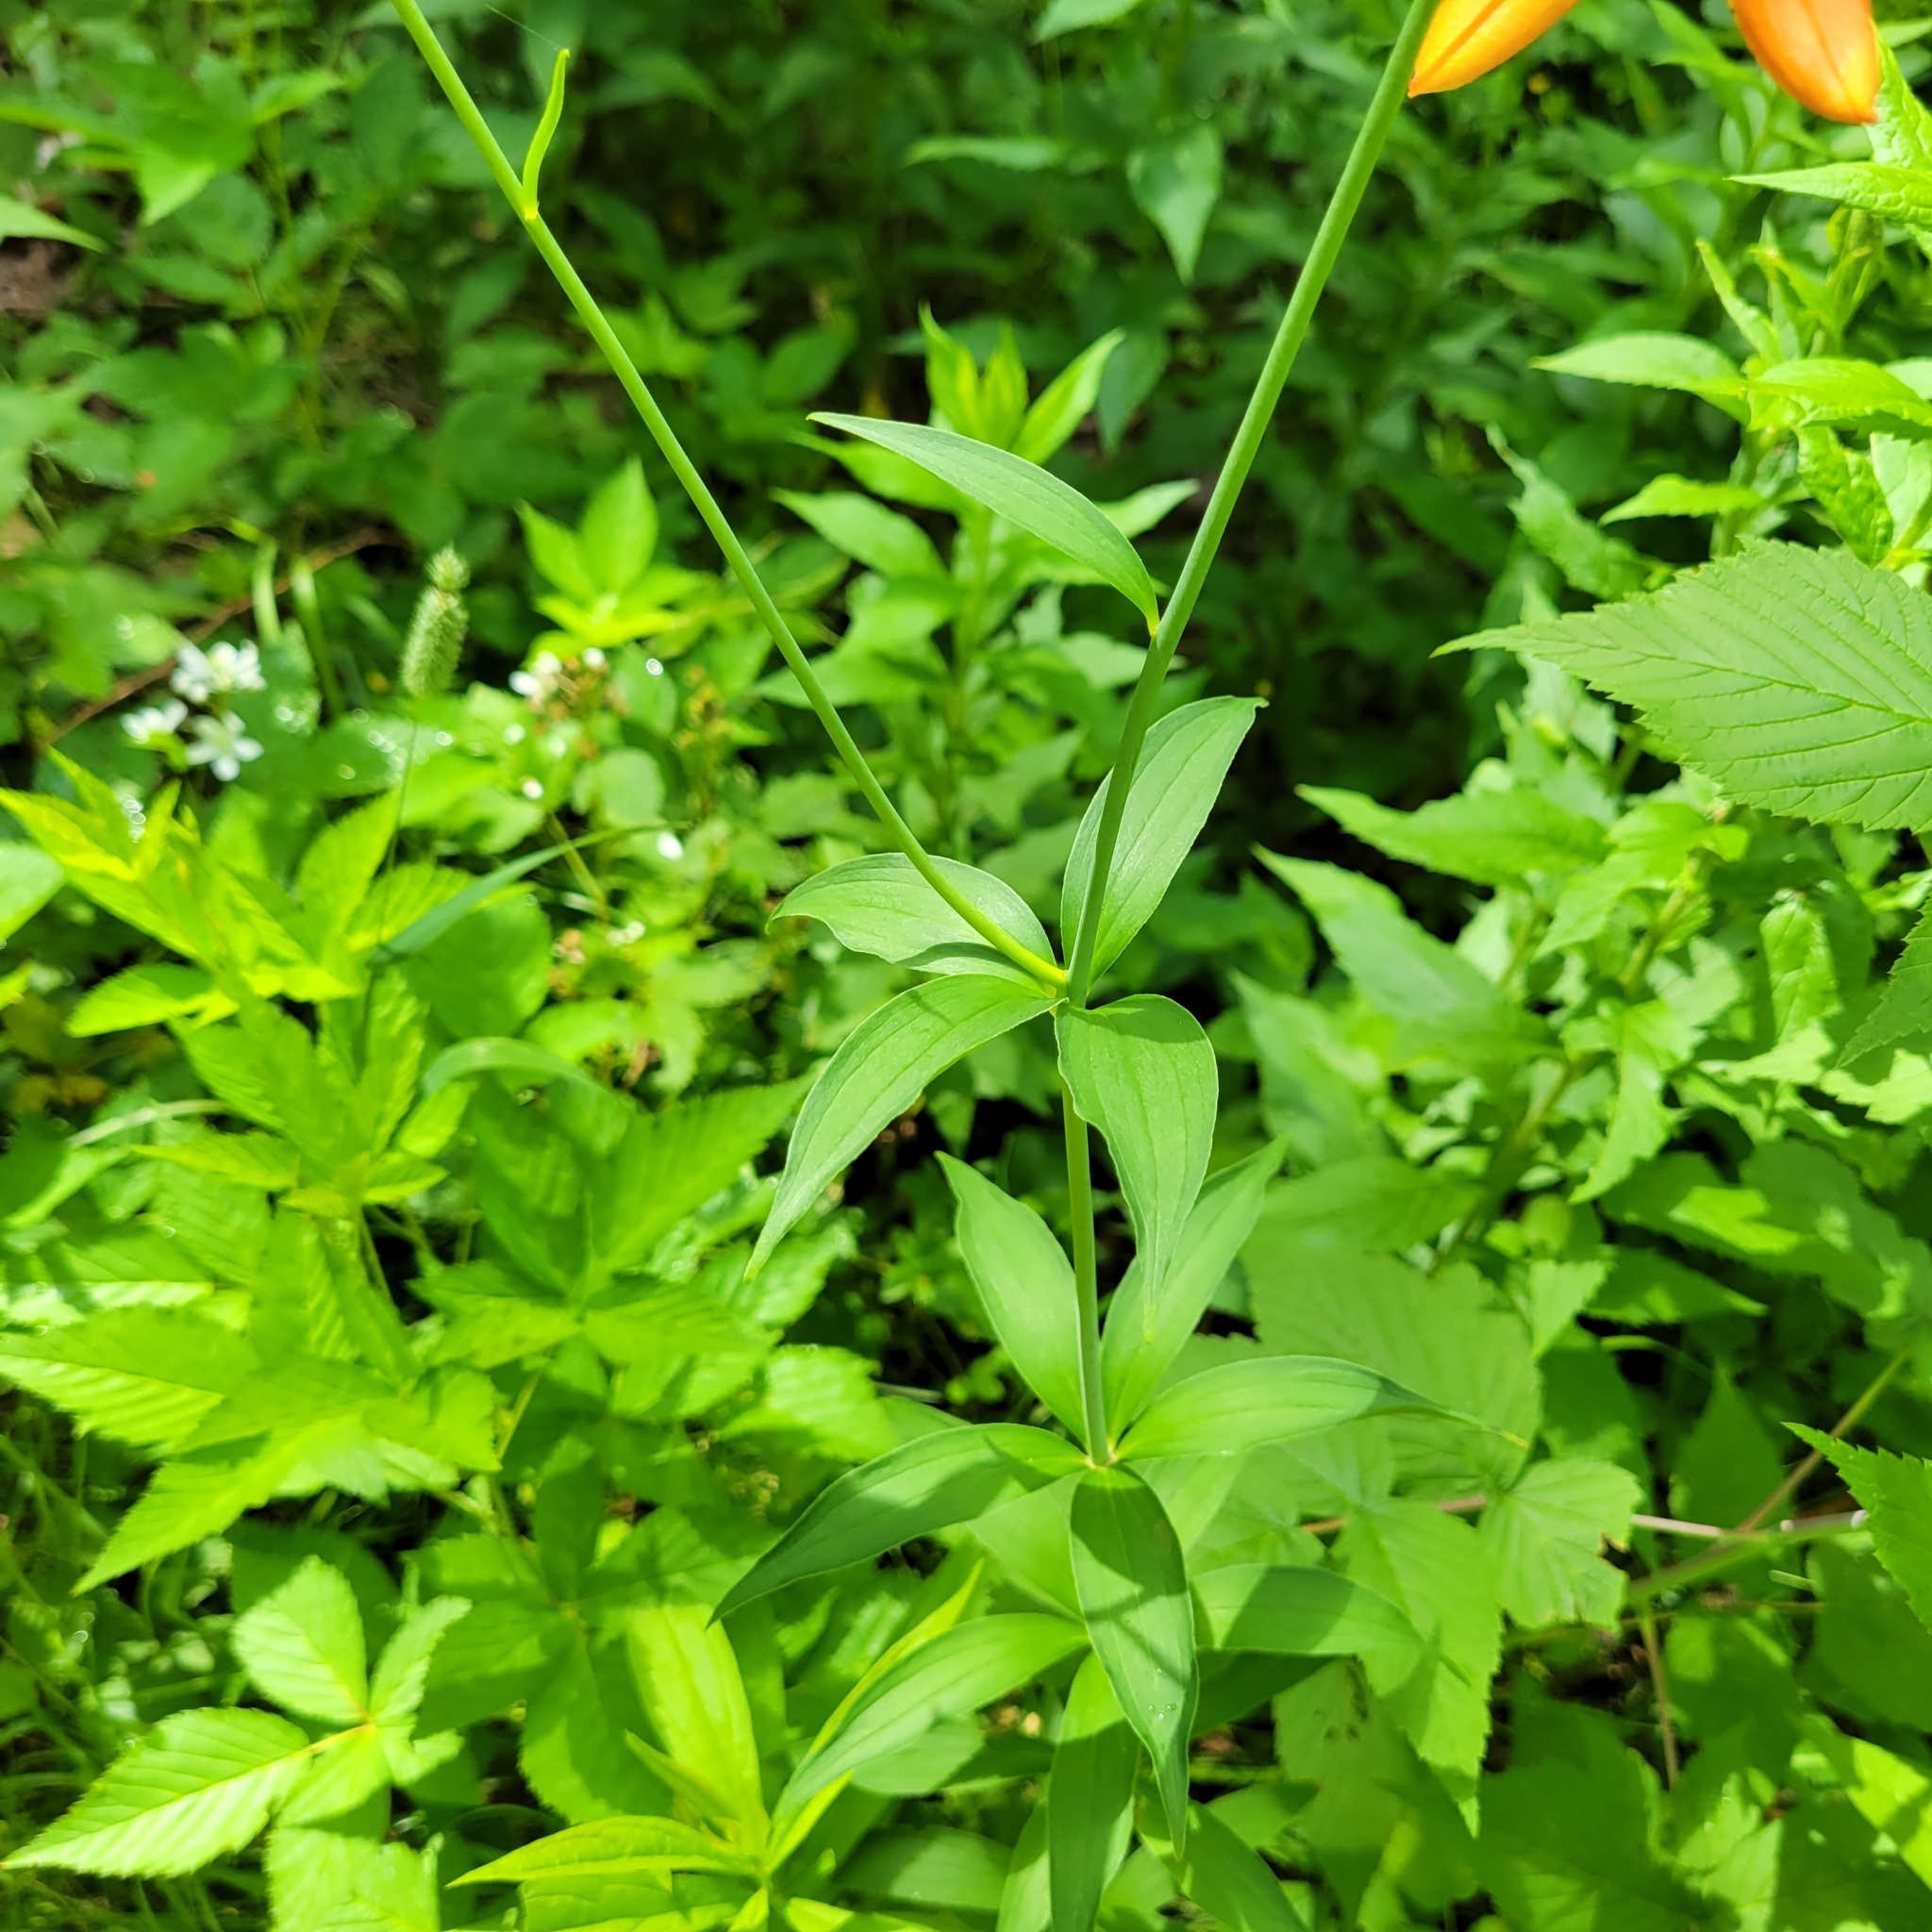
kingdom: Plantae
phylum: Tracheophyta
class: Liliopsida
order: Liliales
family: Liliaceae
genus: Lilium
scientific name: Lilium canadense
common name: Canada lily
